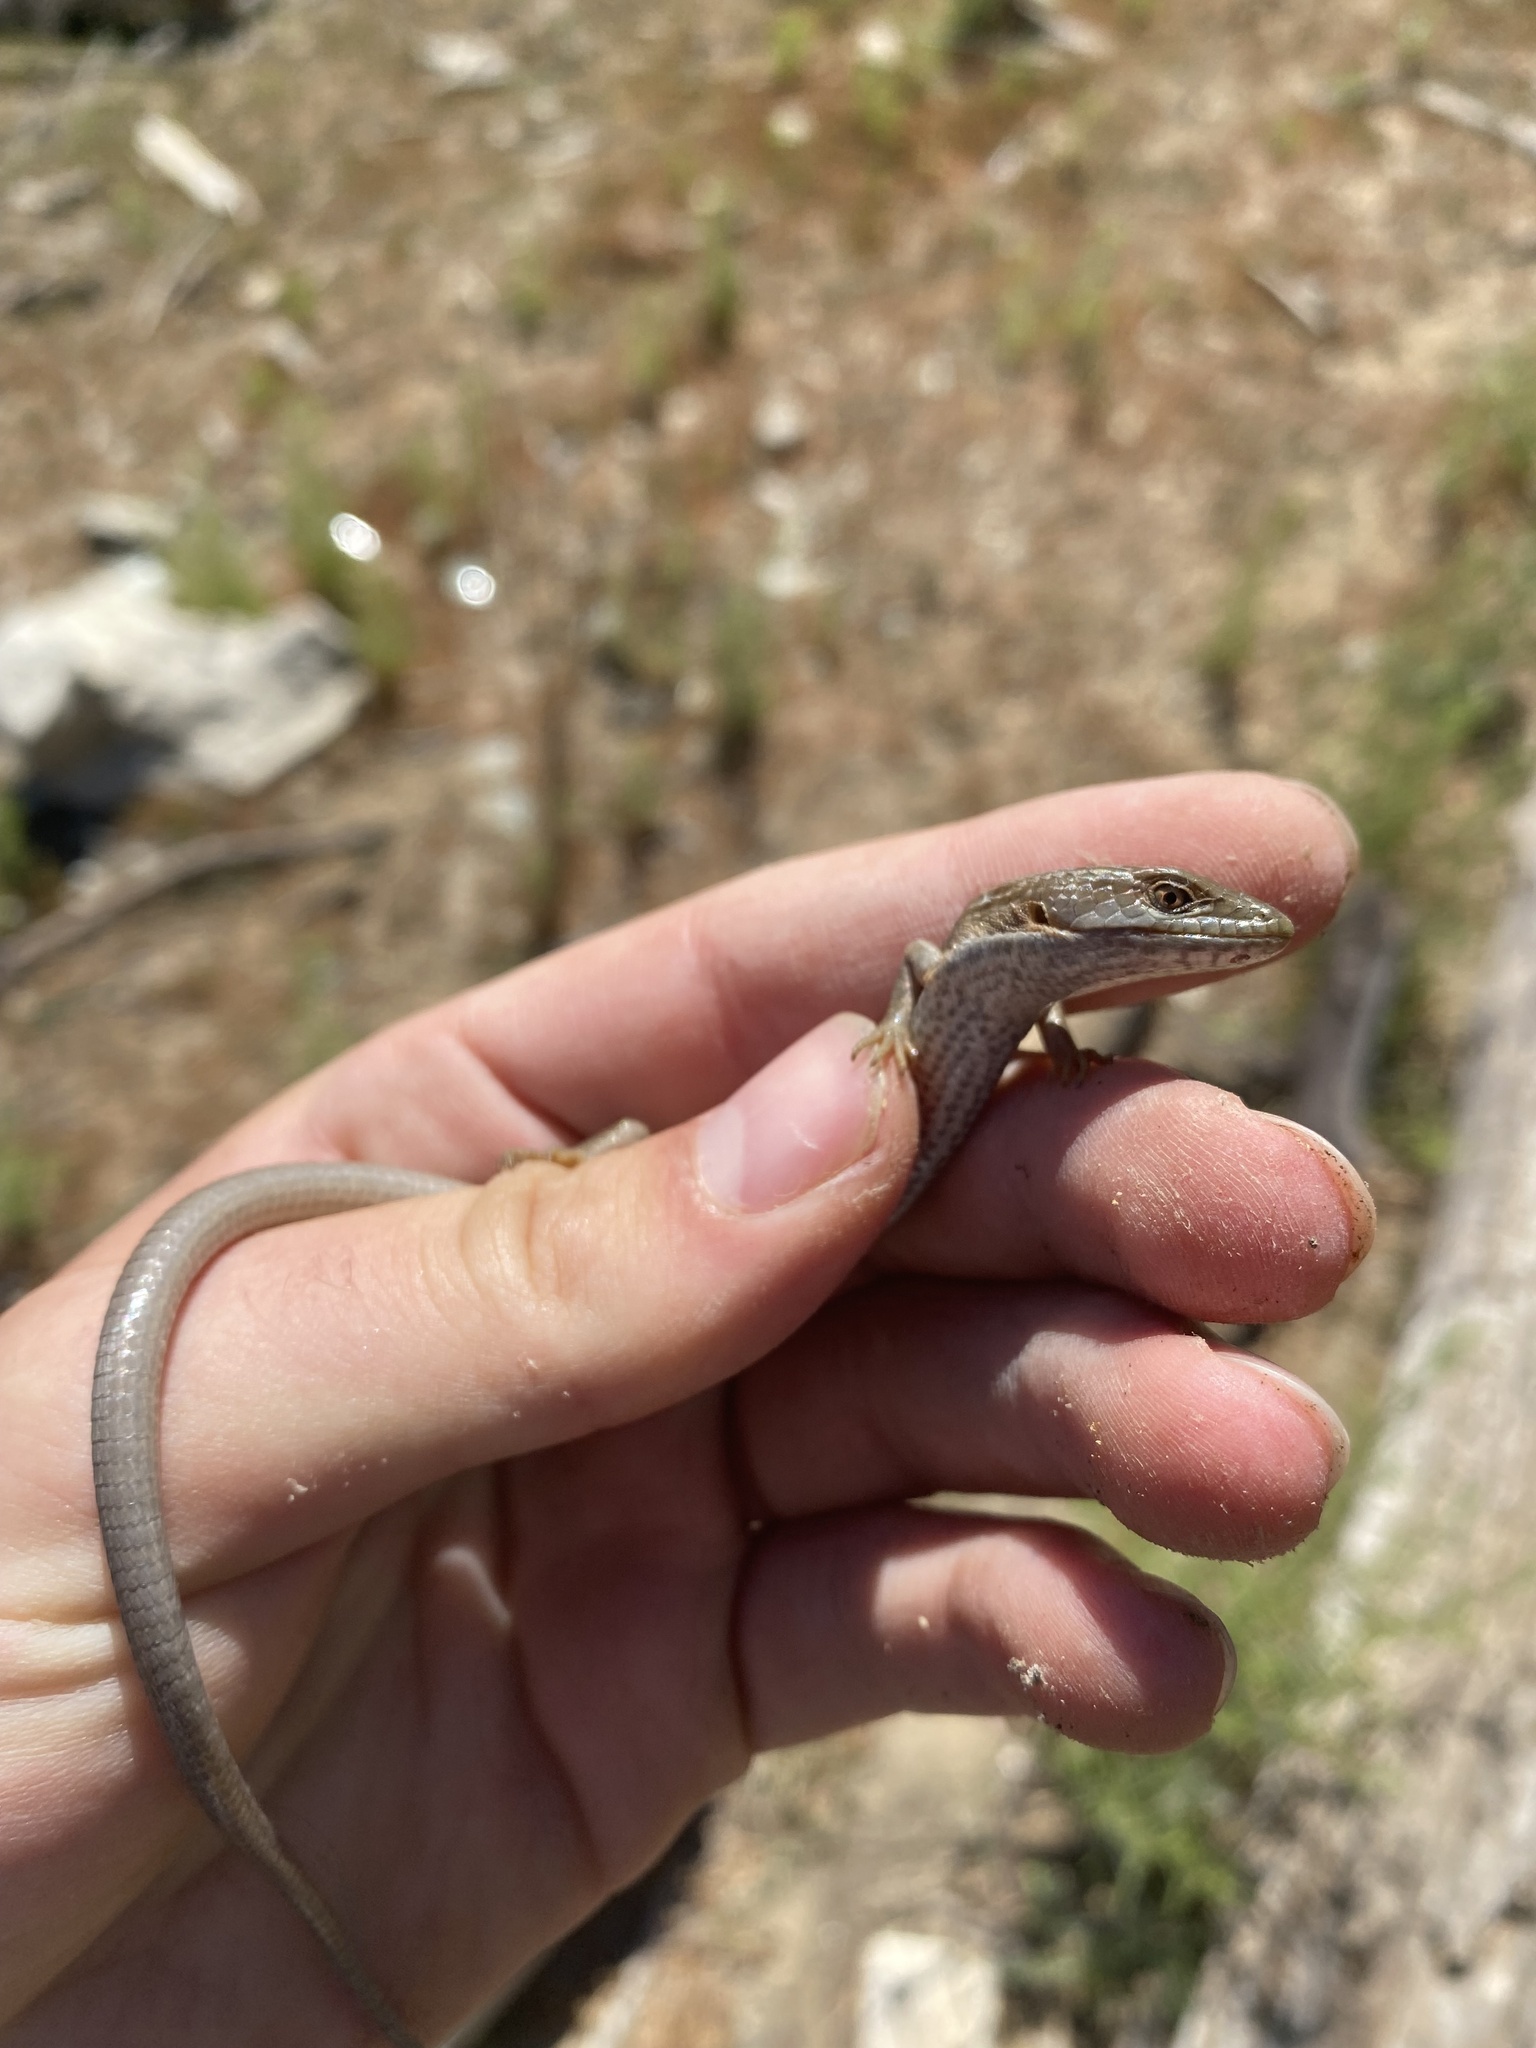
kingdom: Animalia
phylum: Chordata
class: Squamata
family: Anguidae
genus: Elgaria
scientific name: Elgaria multicarinata
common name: Southern alligator lizard
